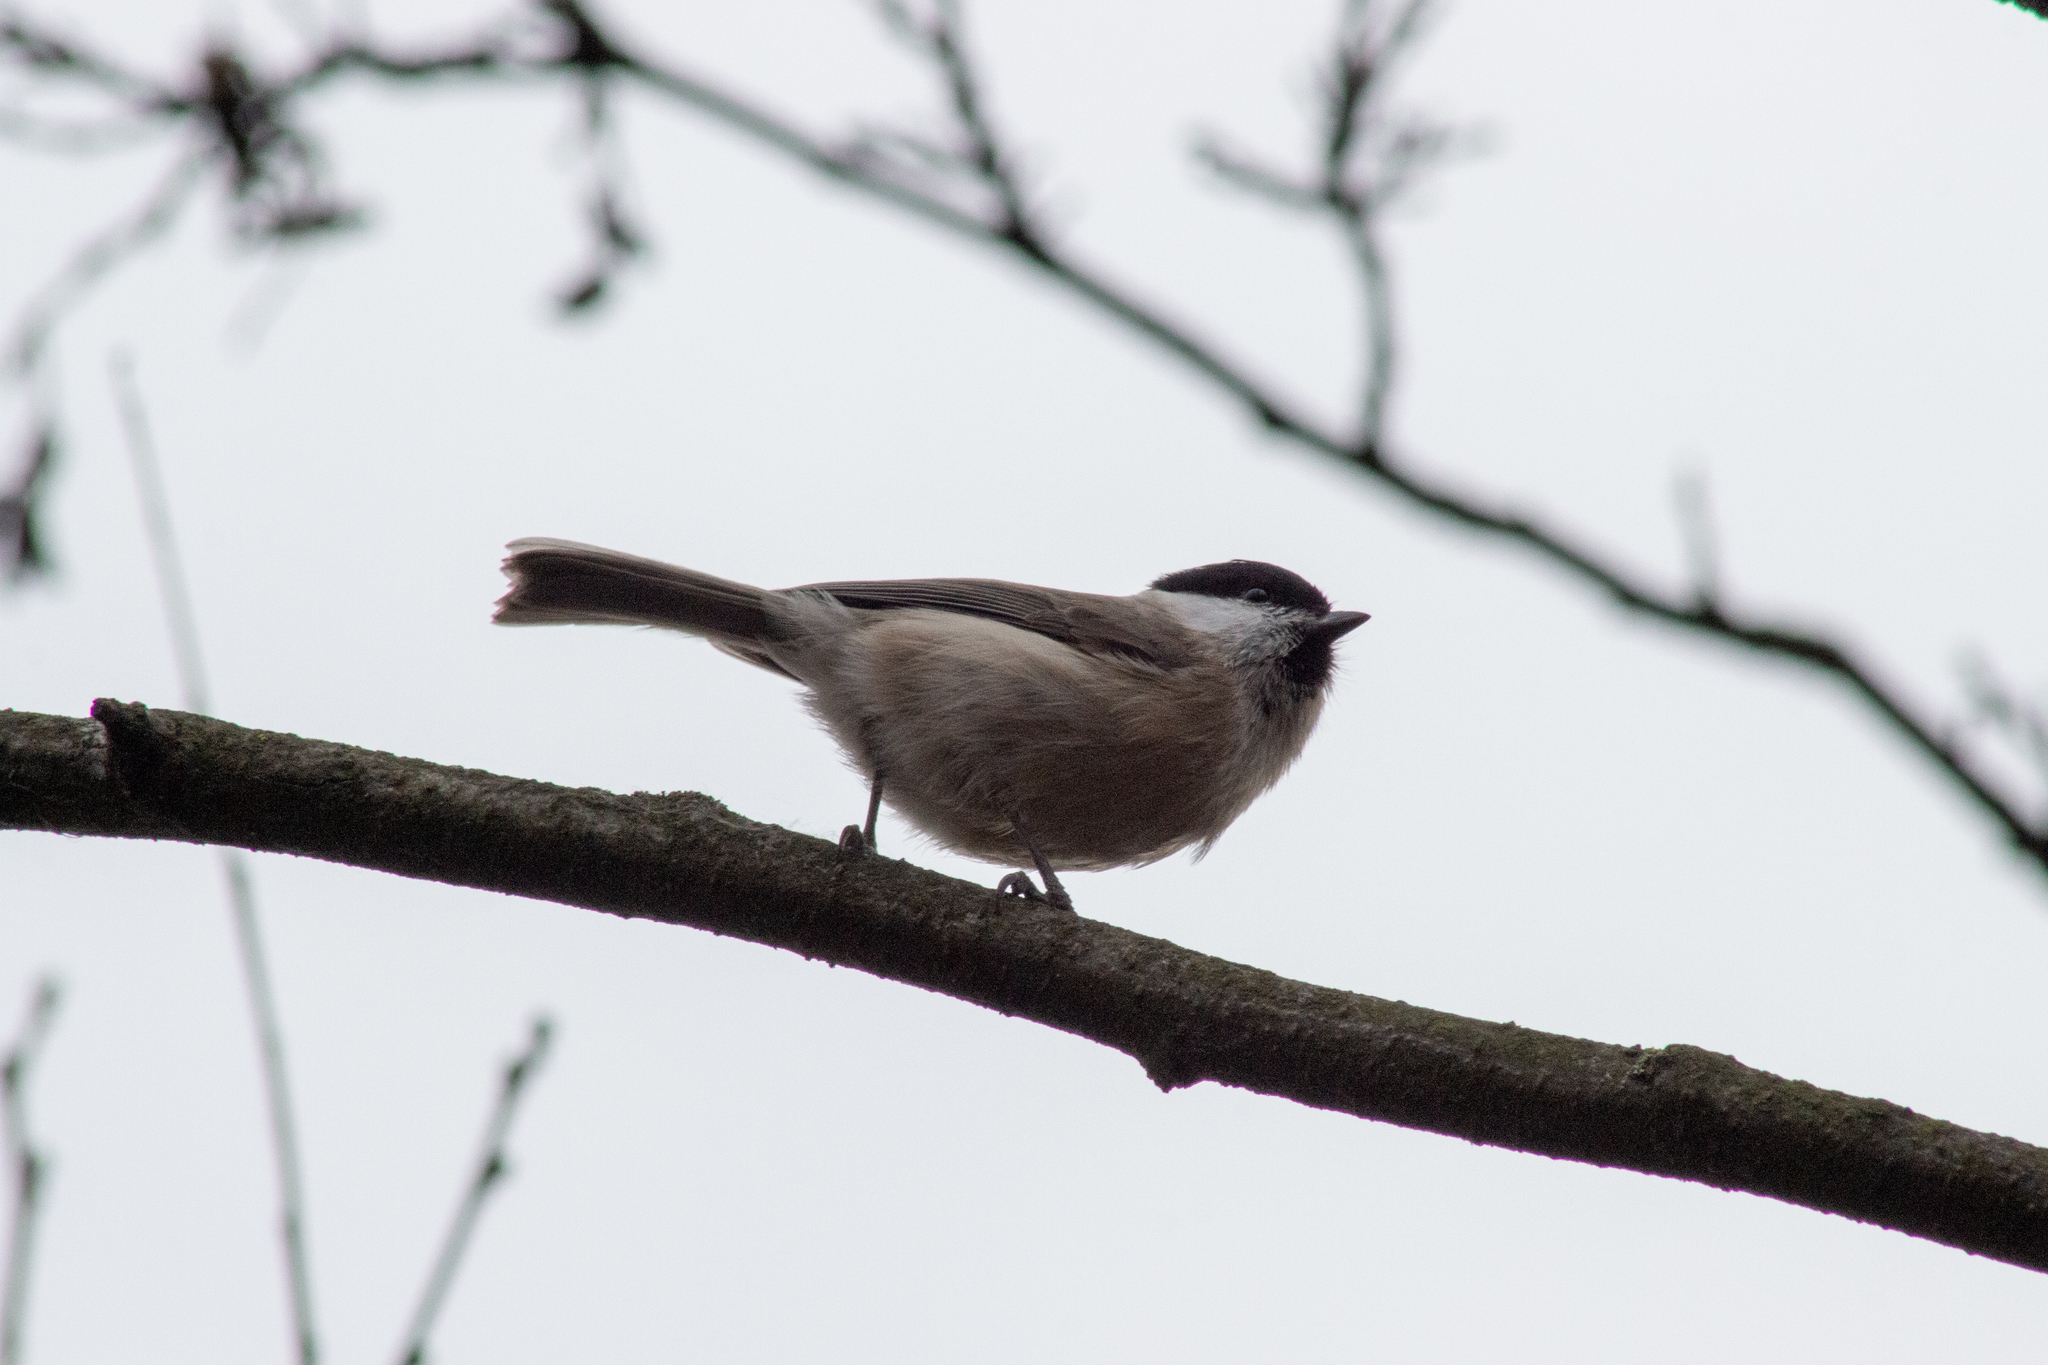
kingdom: Animalia
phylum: Chordata
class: Aves
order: Passeriformes
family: Paridae
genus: Poecile
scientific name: Poecile palustris
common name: Marsh tit
